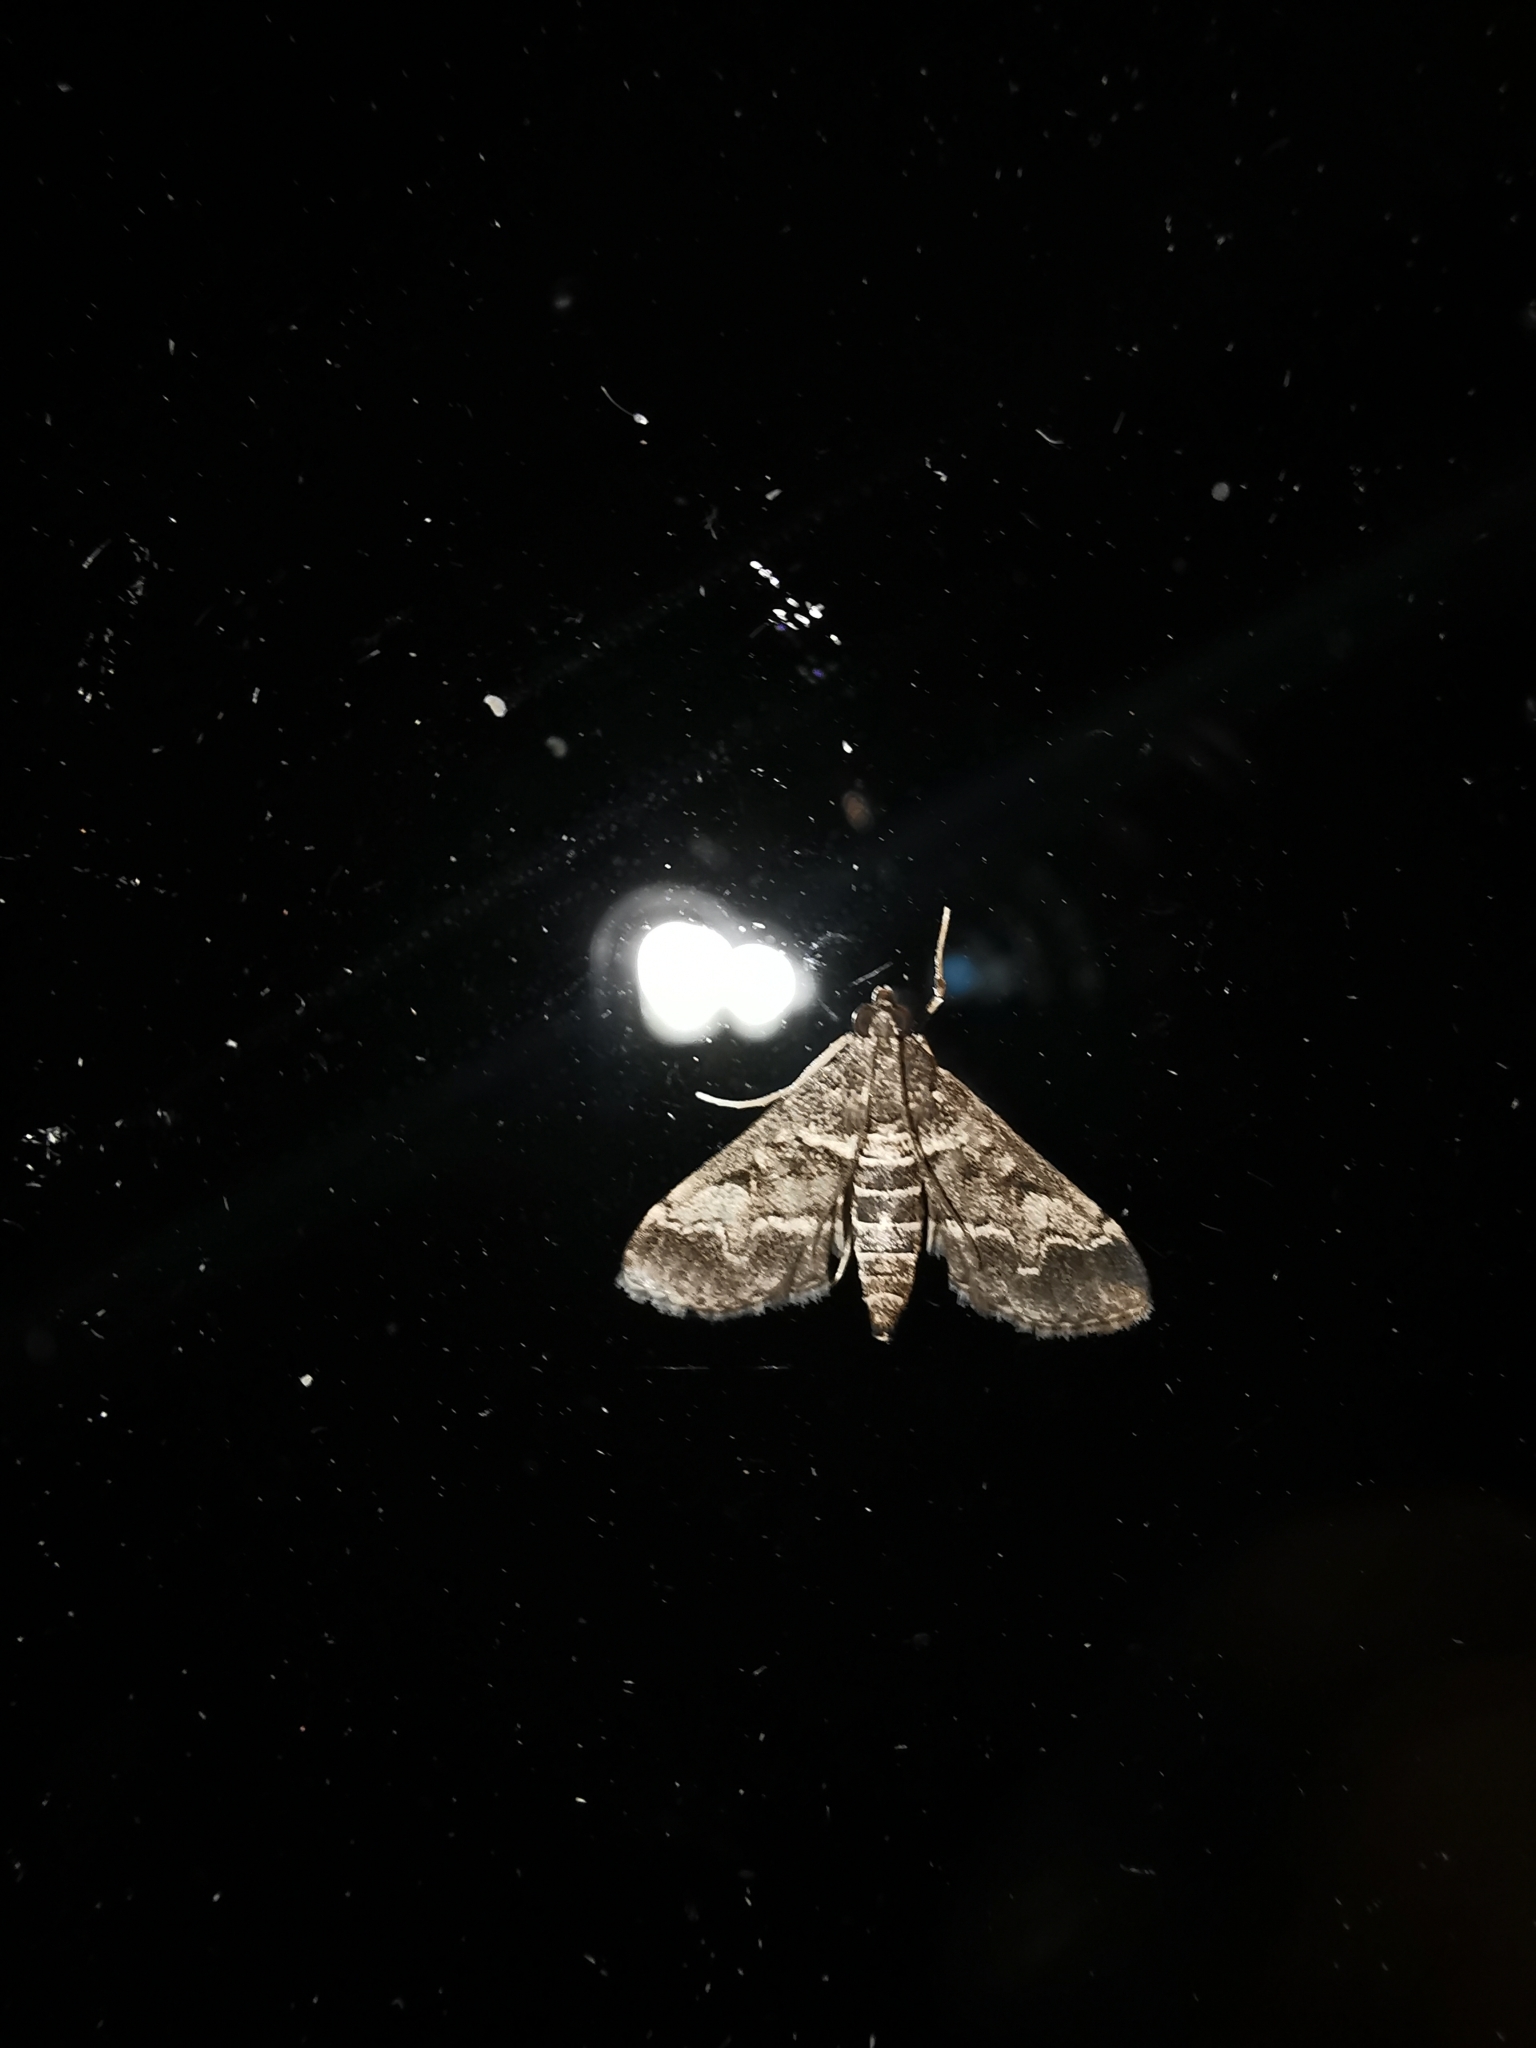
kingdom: Animalia
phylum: Arthropoda
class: Insecta
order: Lepidoptera
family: Crambidae
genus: Duponchelia
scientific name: Duponchelia fovealis
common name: Crambid moth
